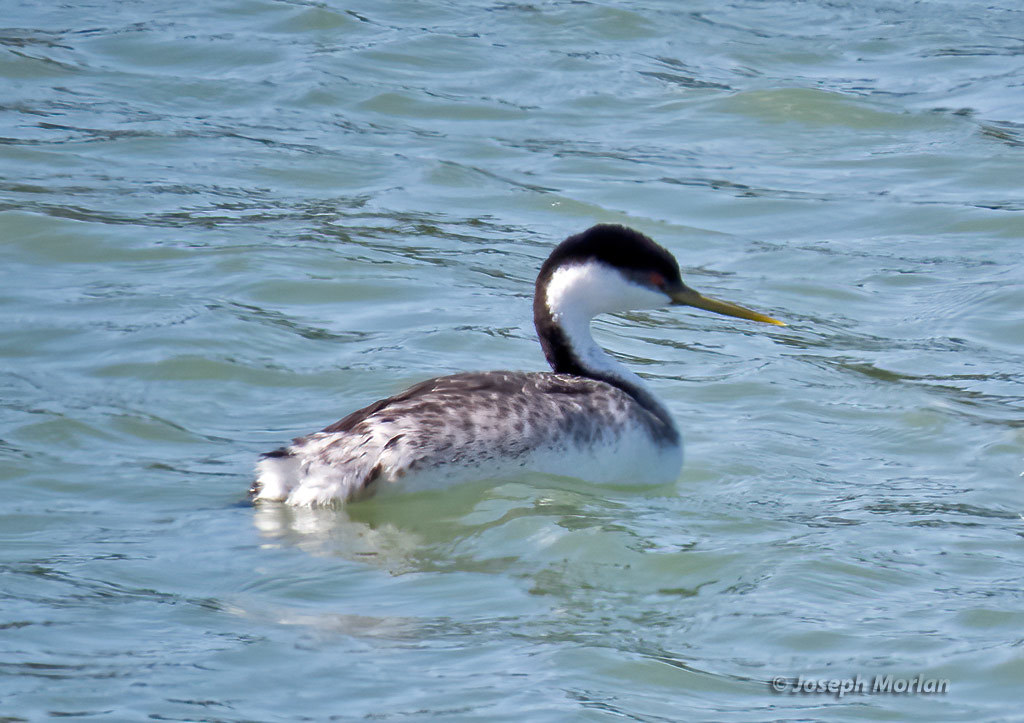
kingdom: Animalia
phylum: Chordata
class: Aves
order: Podicipediformes
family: Podicipedidae
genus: Aechmophorus
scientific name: Aechmophorus occidentalis
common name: Western grebe
